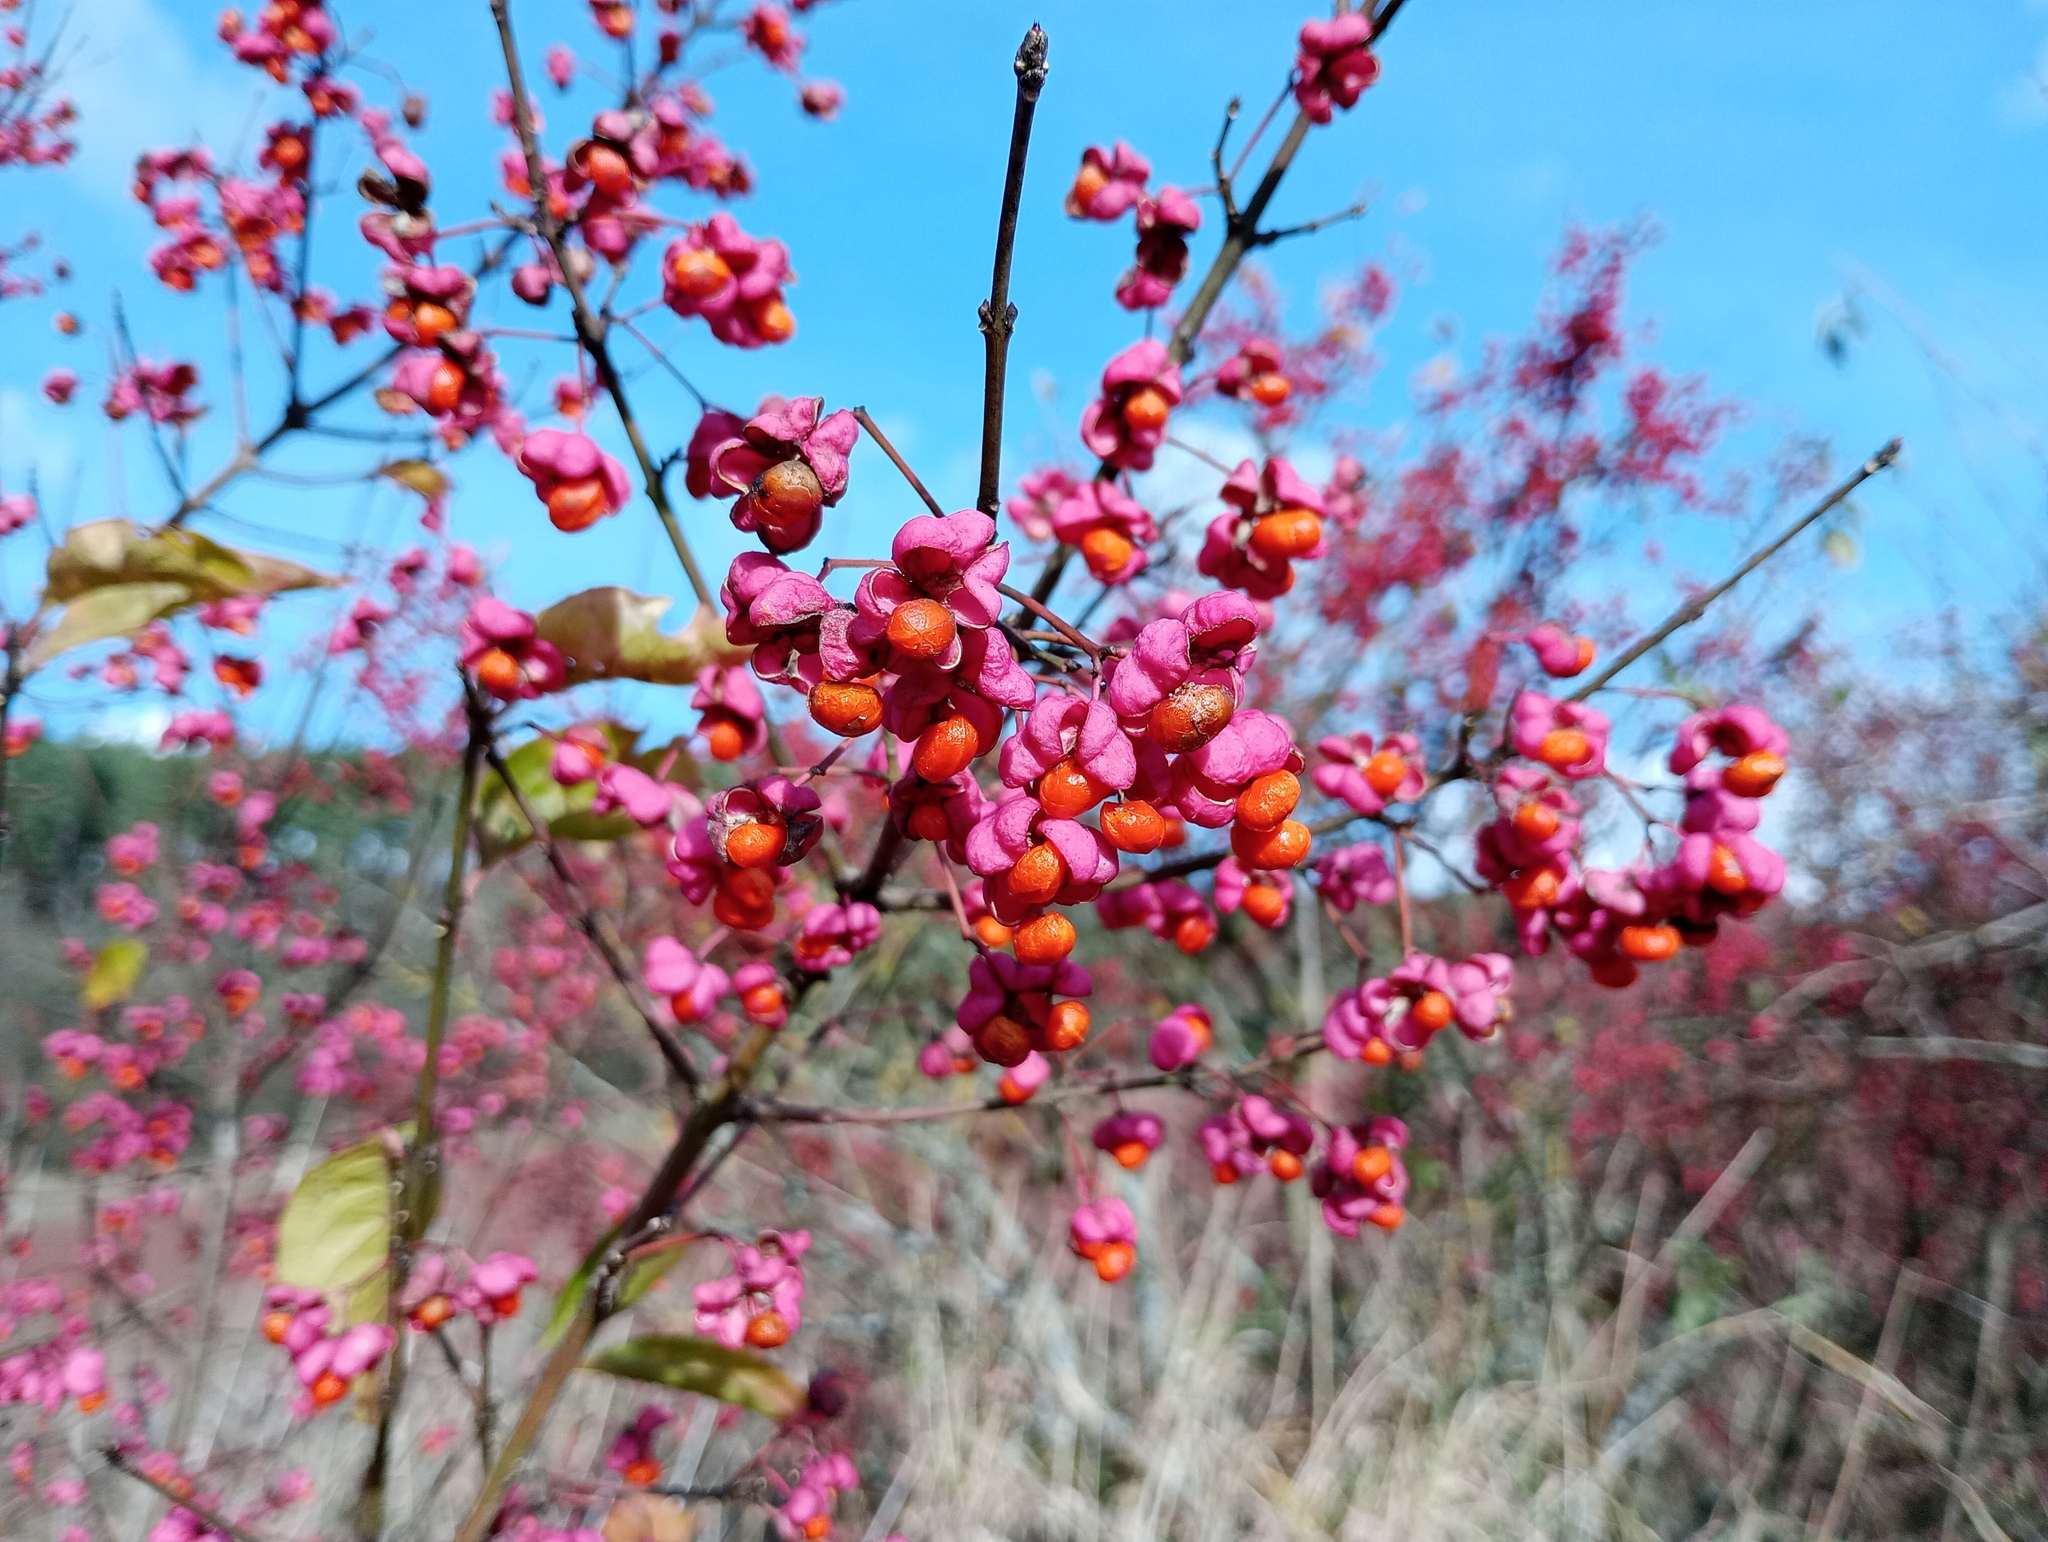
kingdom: Plantae
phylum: Tracheophyta
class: Magnoliopsida
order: Celastrales
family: Celastraceae
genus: Euonymus
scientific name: Euonymus europaeus
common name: Spindle
